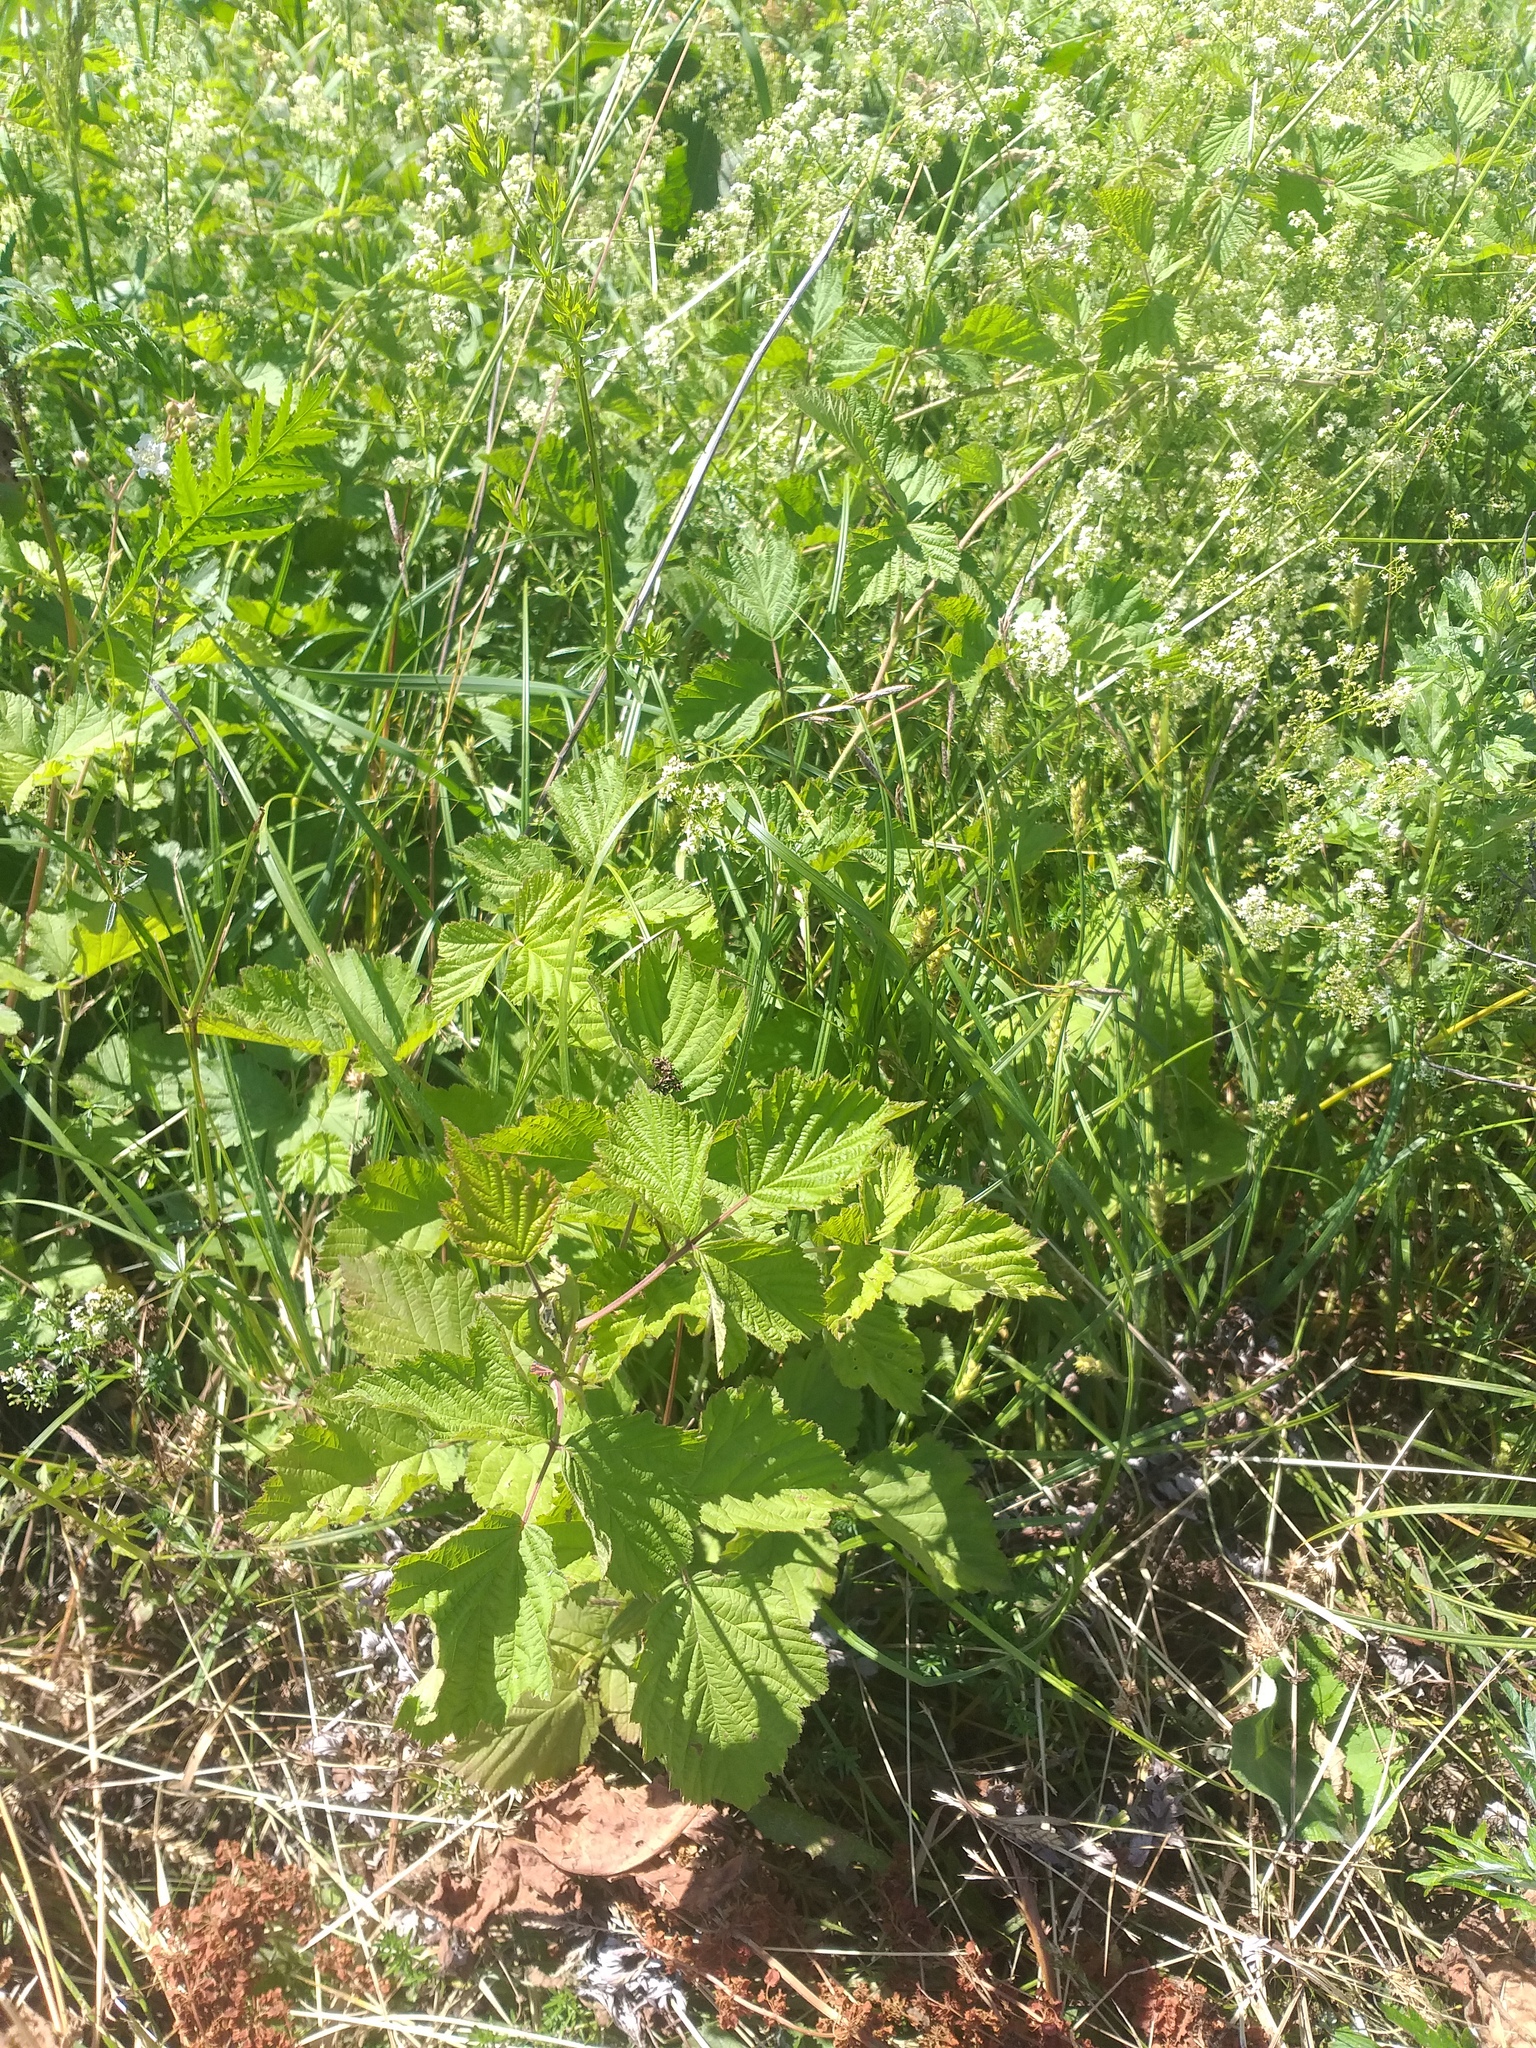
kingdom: Plantae
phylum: Tracheophyta
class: Magnoliopsida
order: Rosales
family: Rosaceae
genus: Rubus
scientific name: Rubus caesius
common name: Dewberry
